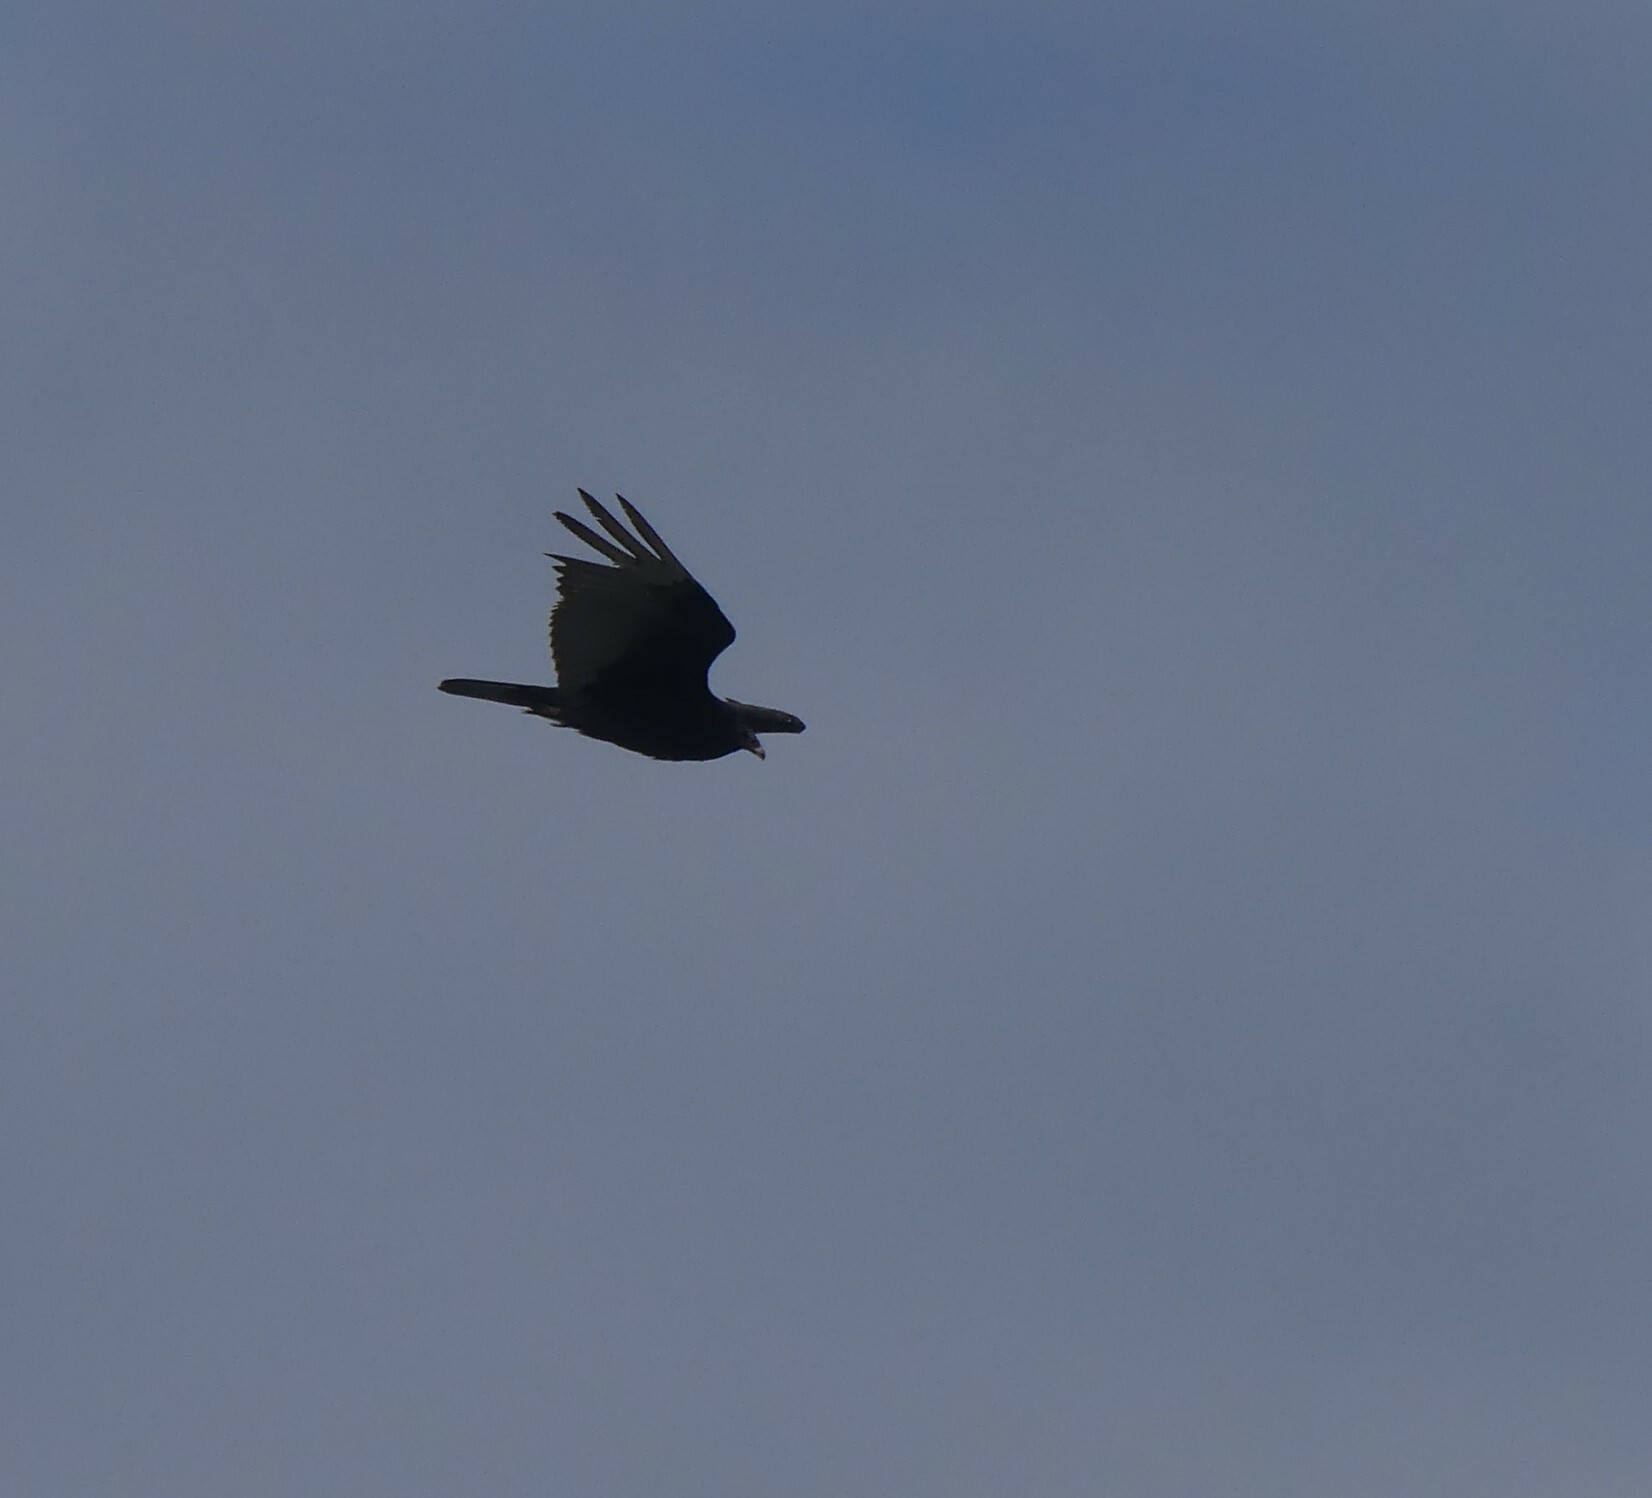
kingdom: Animalia
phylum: Chordata
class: Aves
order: Accipitriformes
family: Cathartidae
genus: Cathartes
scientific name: Cathartes aura
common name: Turkey vulture
